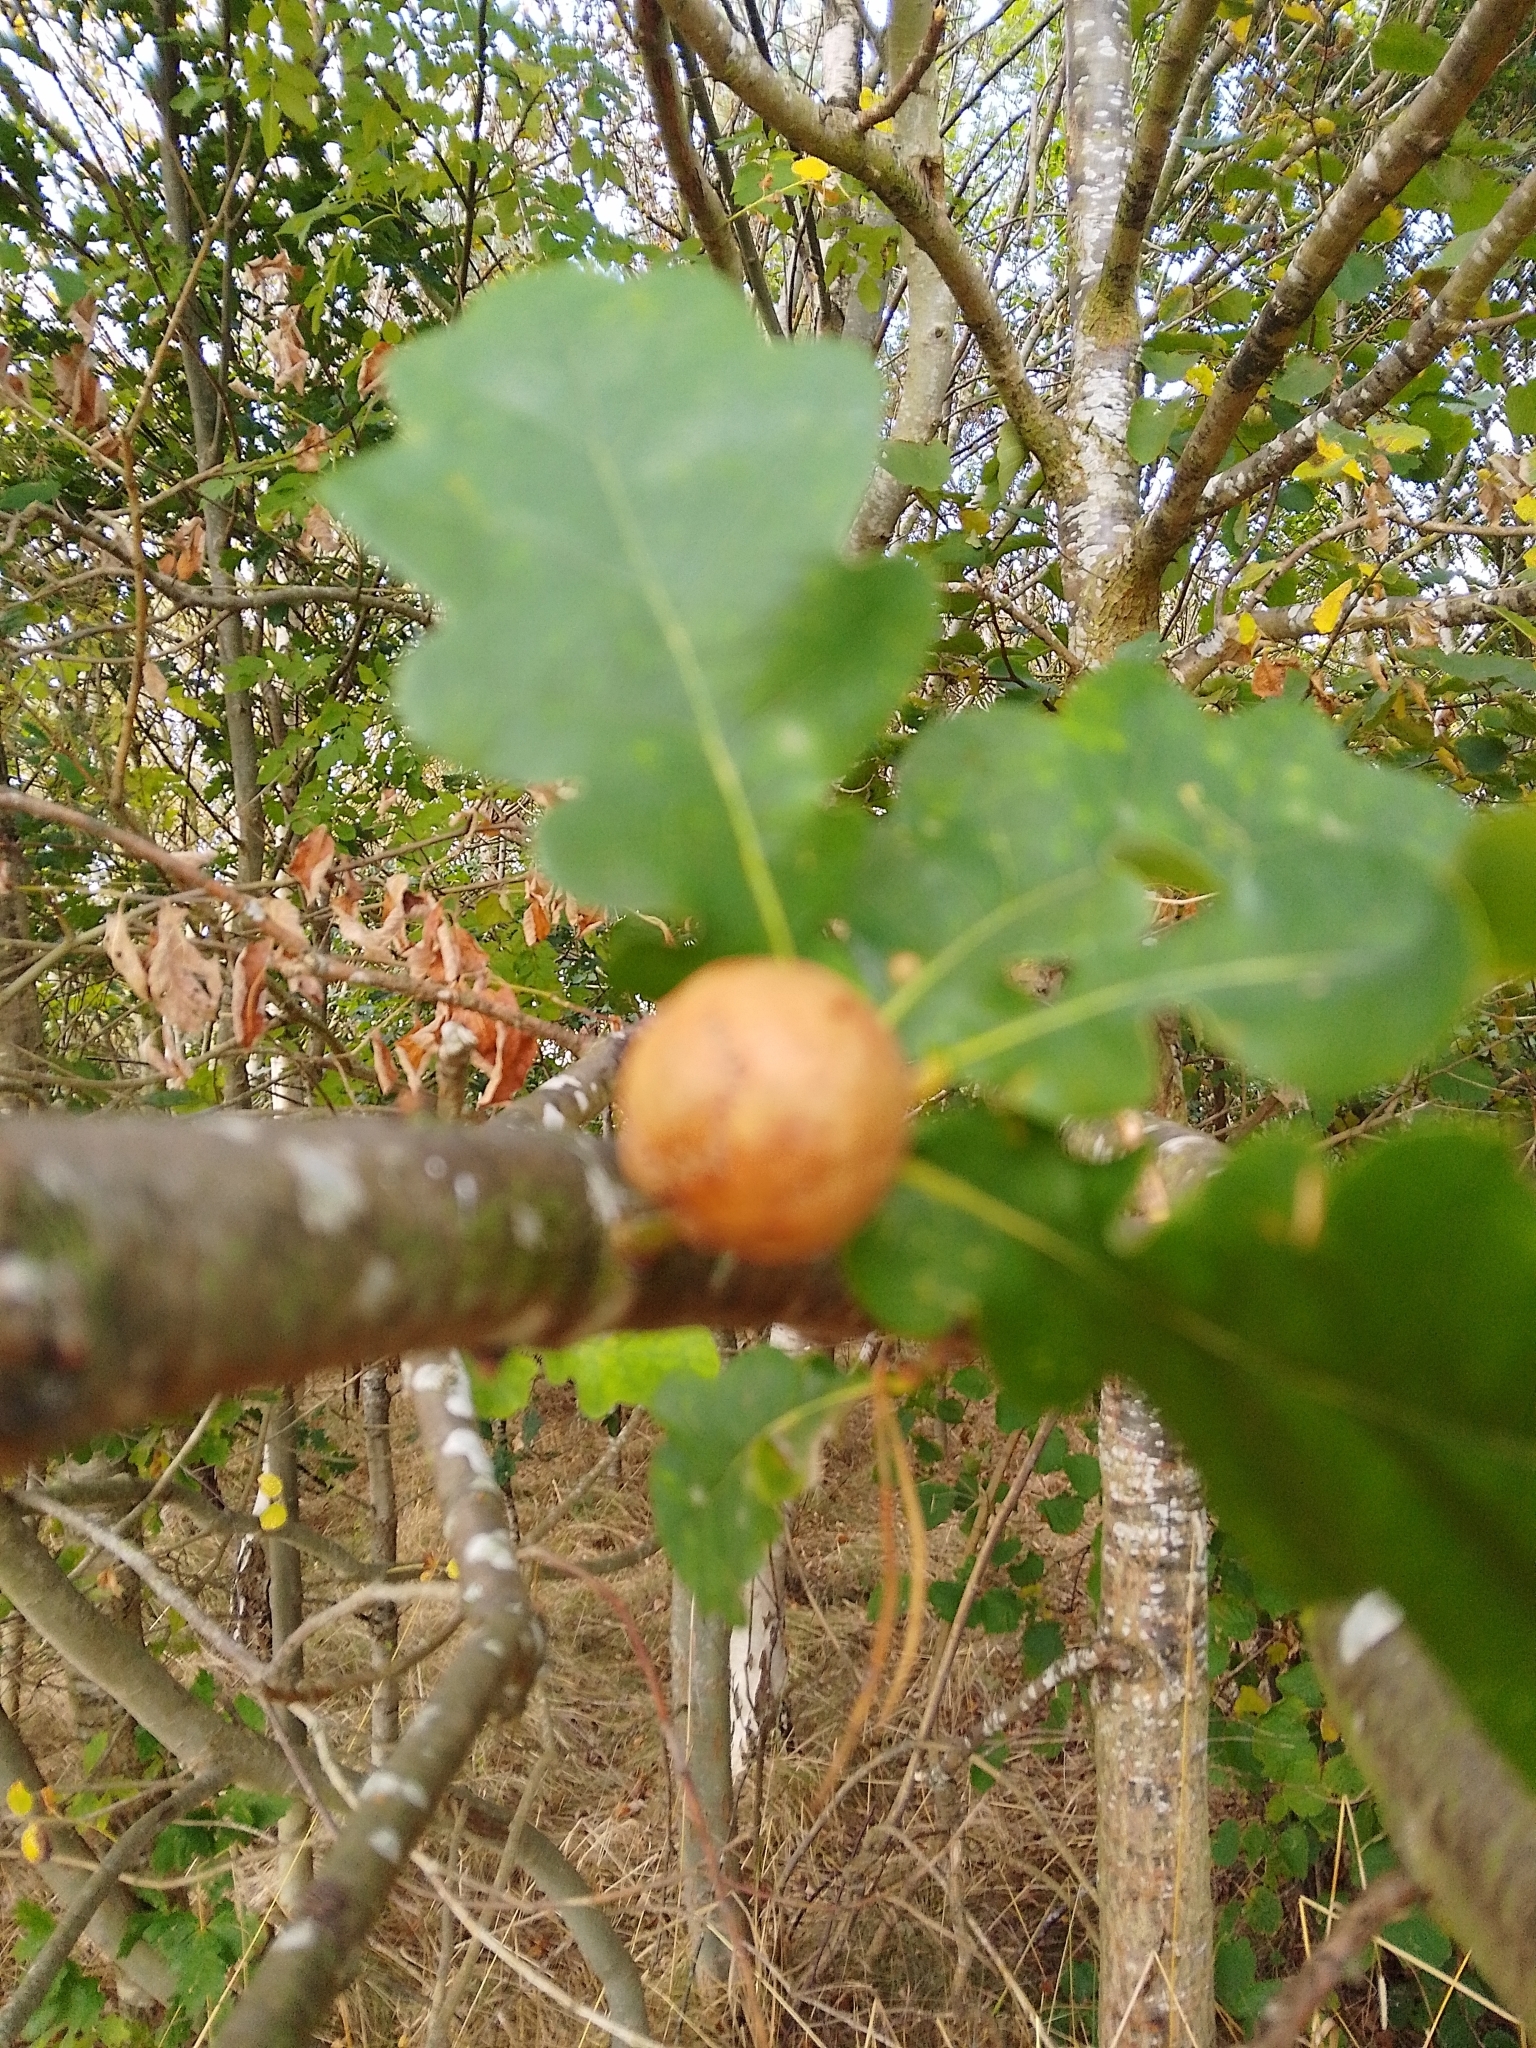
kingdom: Animalia
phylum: Arthropoda
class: Insecta
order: Hymenoptera
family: Cynipidae
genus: Andricus
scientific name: Andricus kollari
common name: Marble gall
